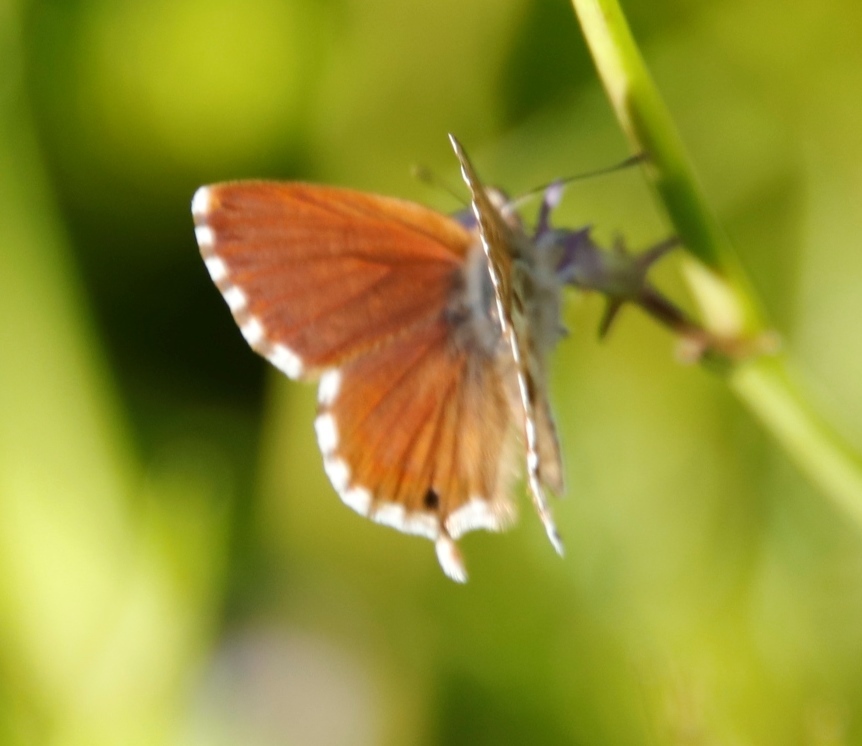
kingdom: Animalia
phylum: Arthropoda
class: Insecta
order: Lepidoptera
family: Lycaenidae
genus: Cacyreus
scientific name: Cacyreus fracta
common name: Water bronze
